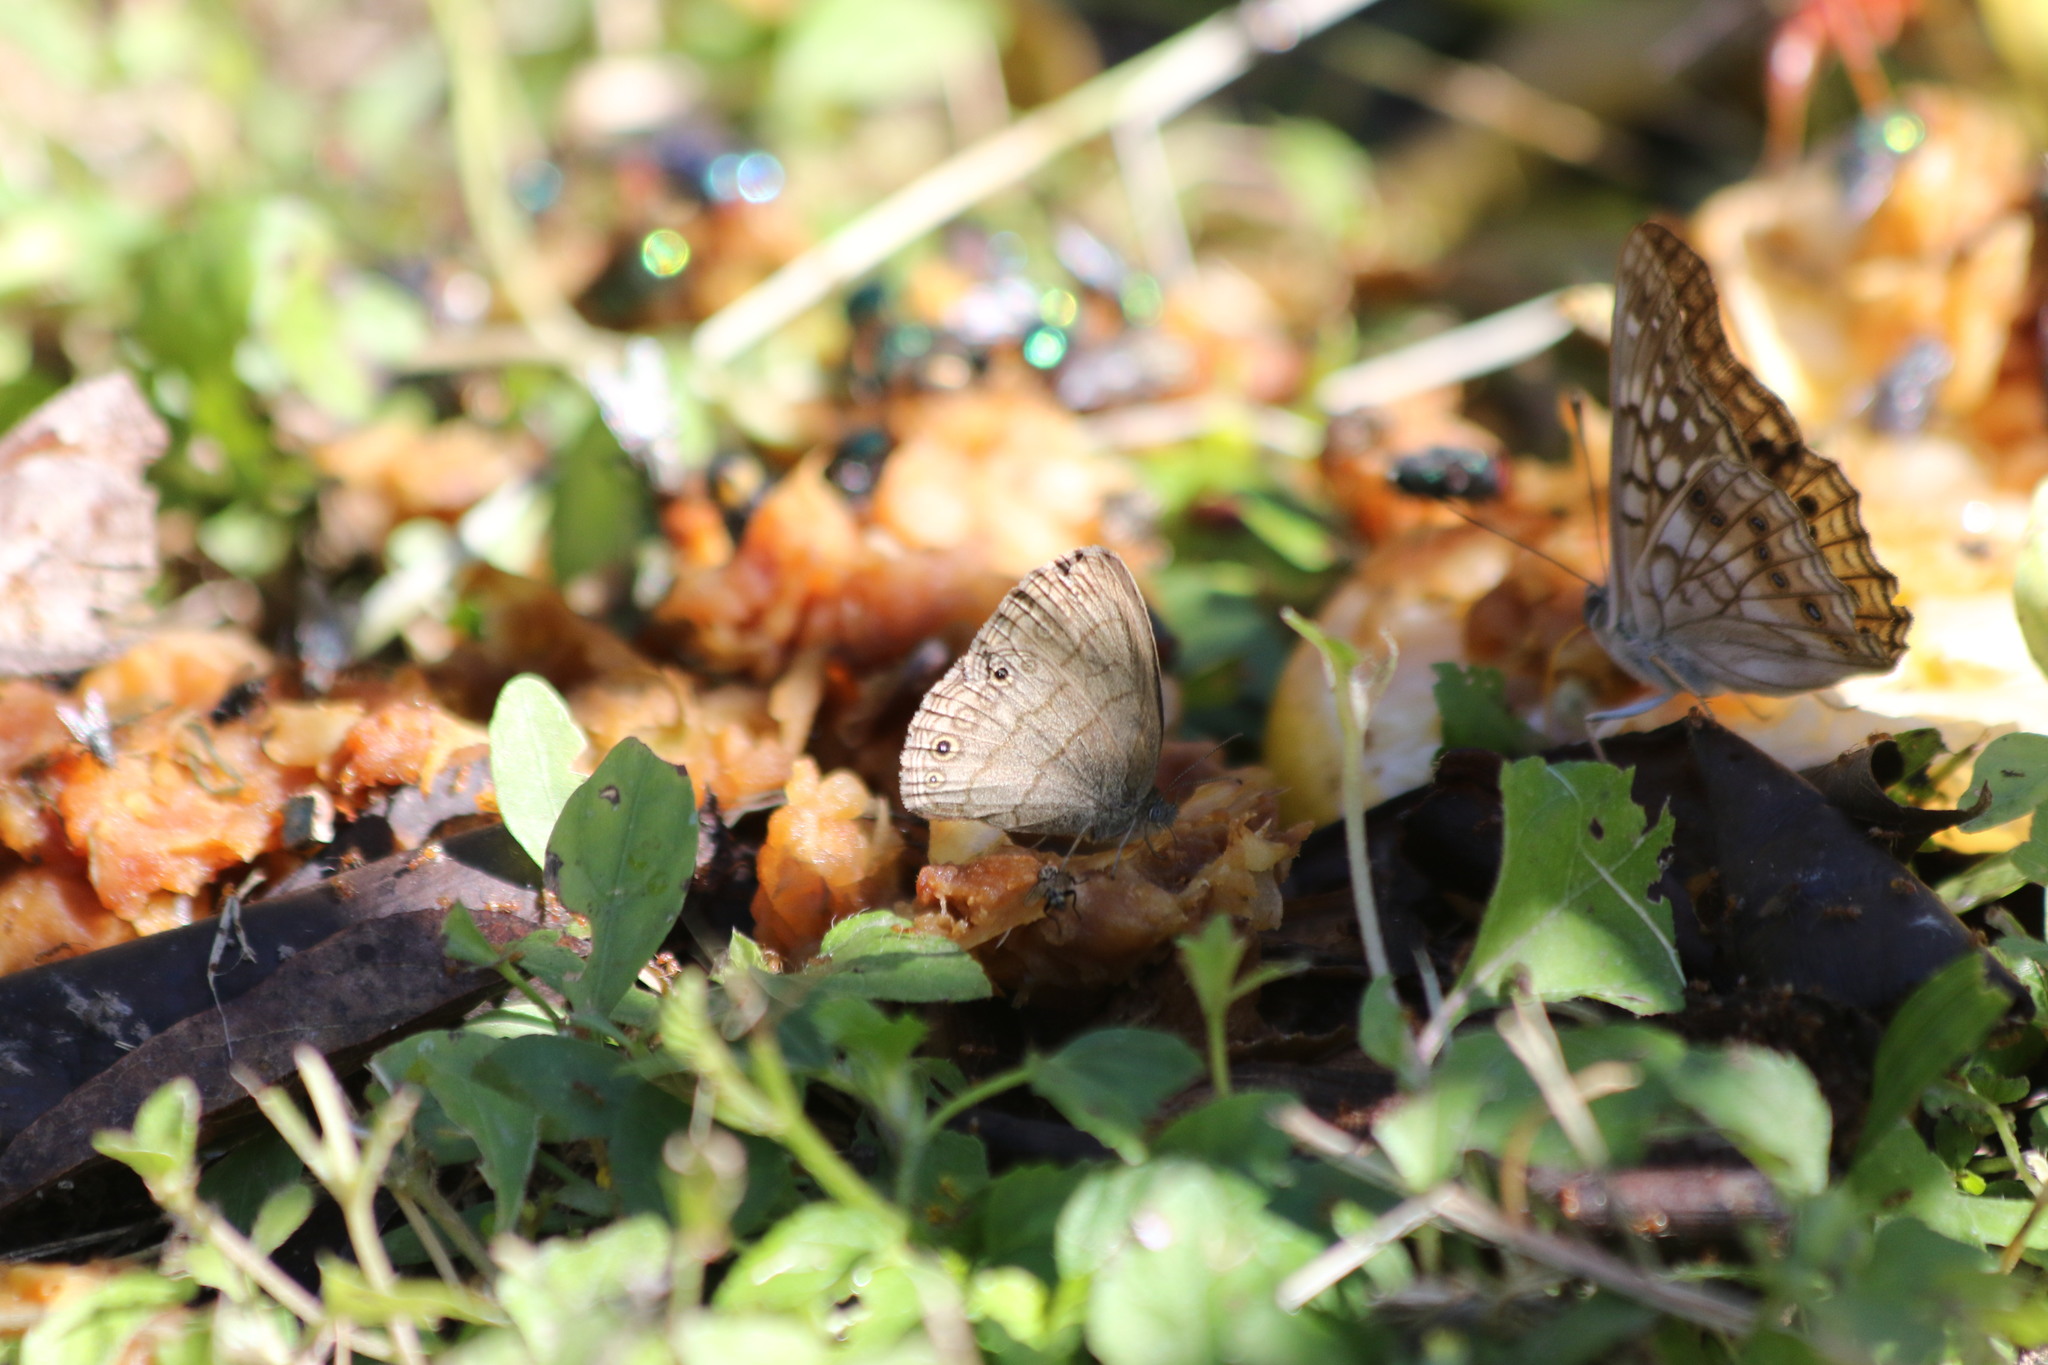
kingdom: Animalia
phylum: Arthropoda
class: Insecta
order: Lepidoptera
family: Nymphalidae
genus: Hermeuptychia
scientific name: Hermeuptychia hermybius
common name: South texas satyr
